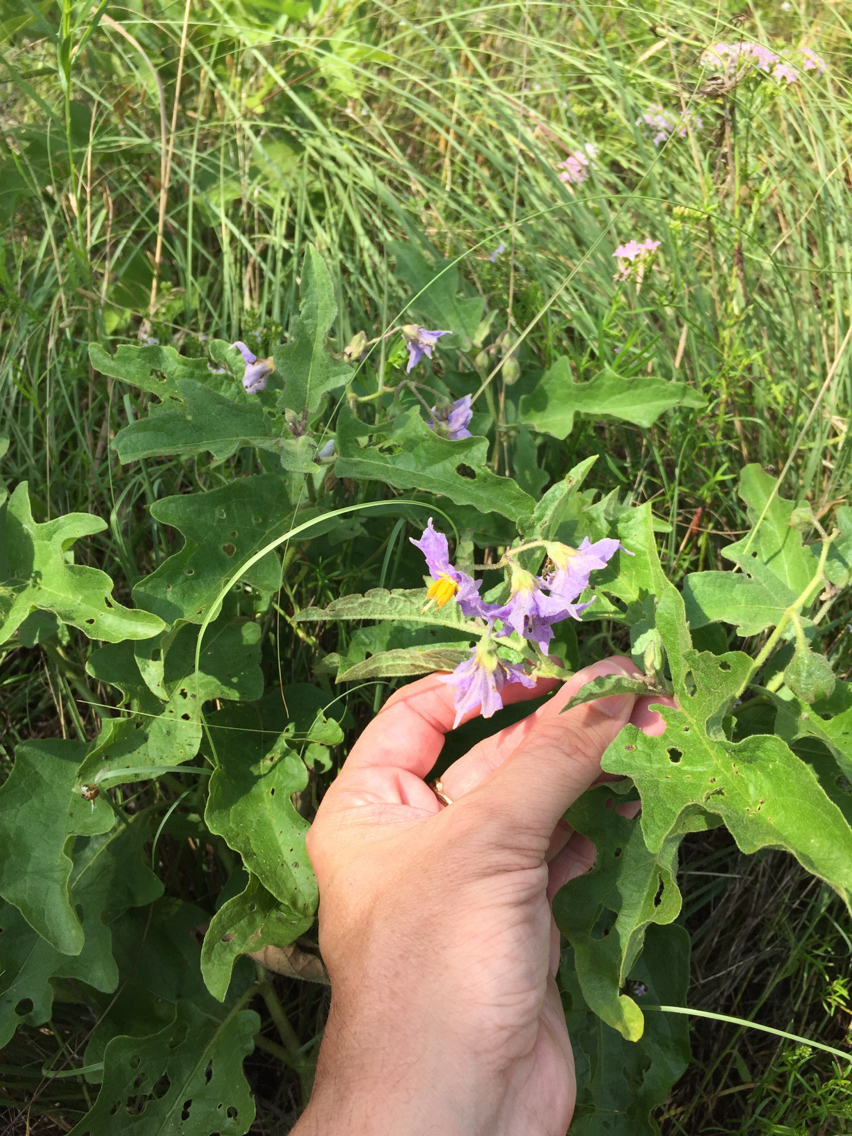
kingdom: Plantae
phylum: Tracheophyta
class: Magnoliopsida
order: Solanales
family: Solanaceae
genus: Solanum
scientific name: Solanum dimidiatum
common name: Carolina horse-nettle
